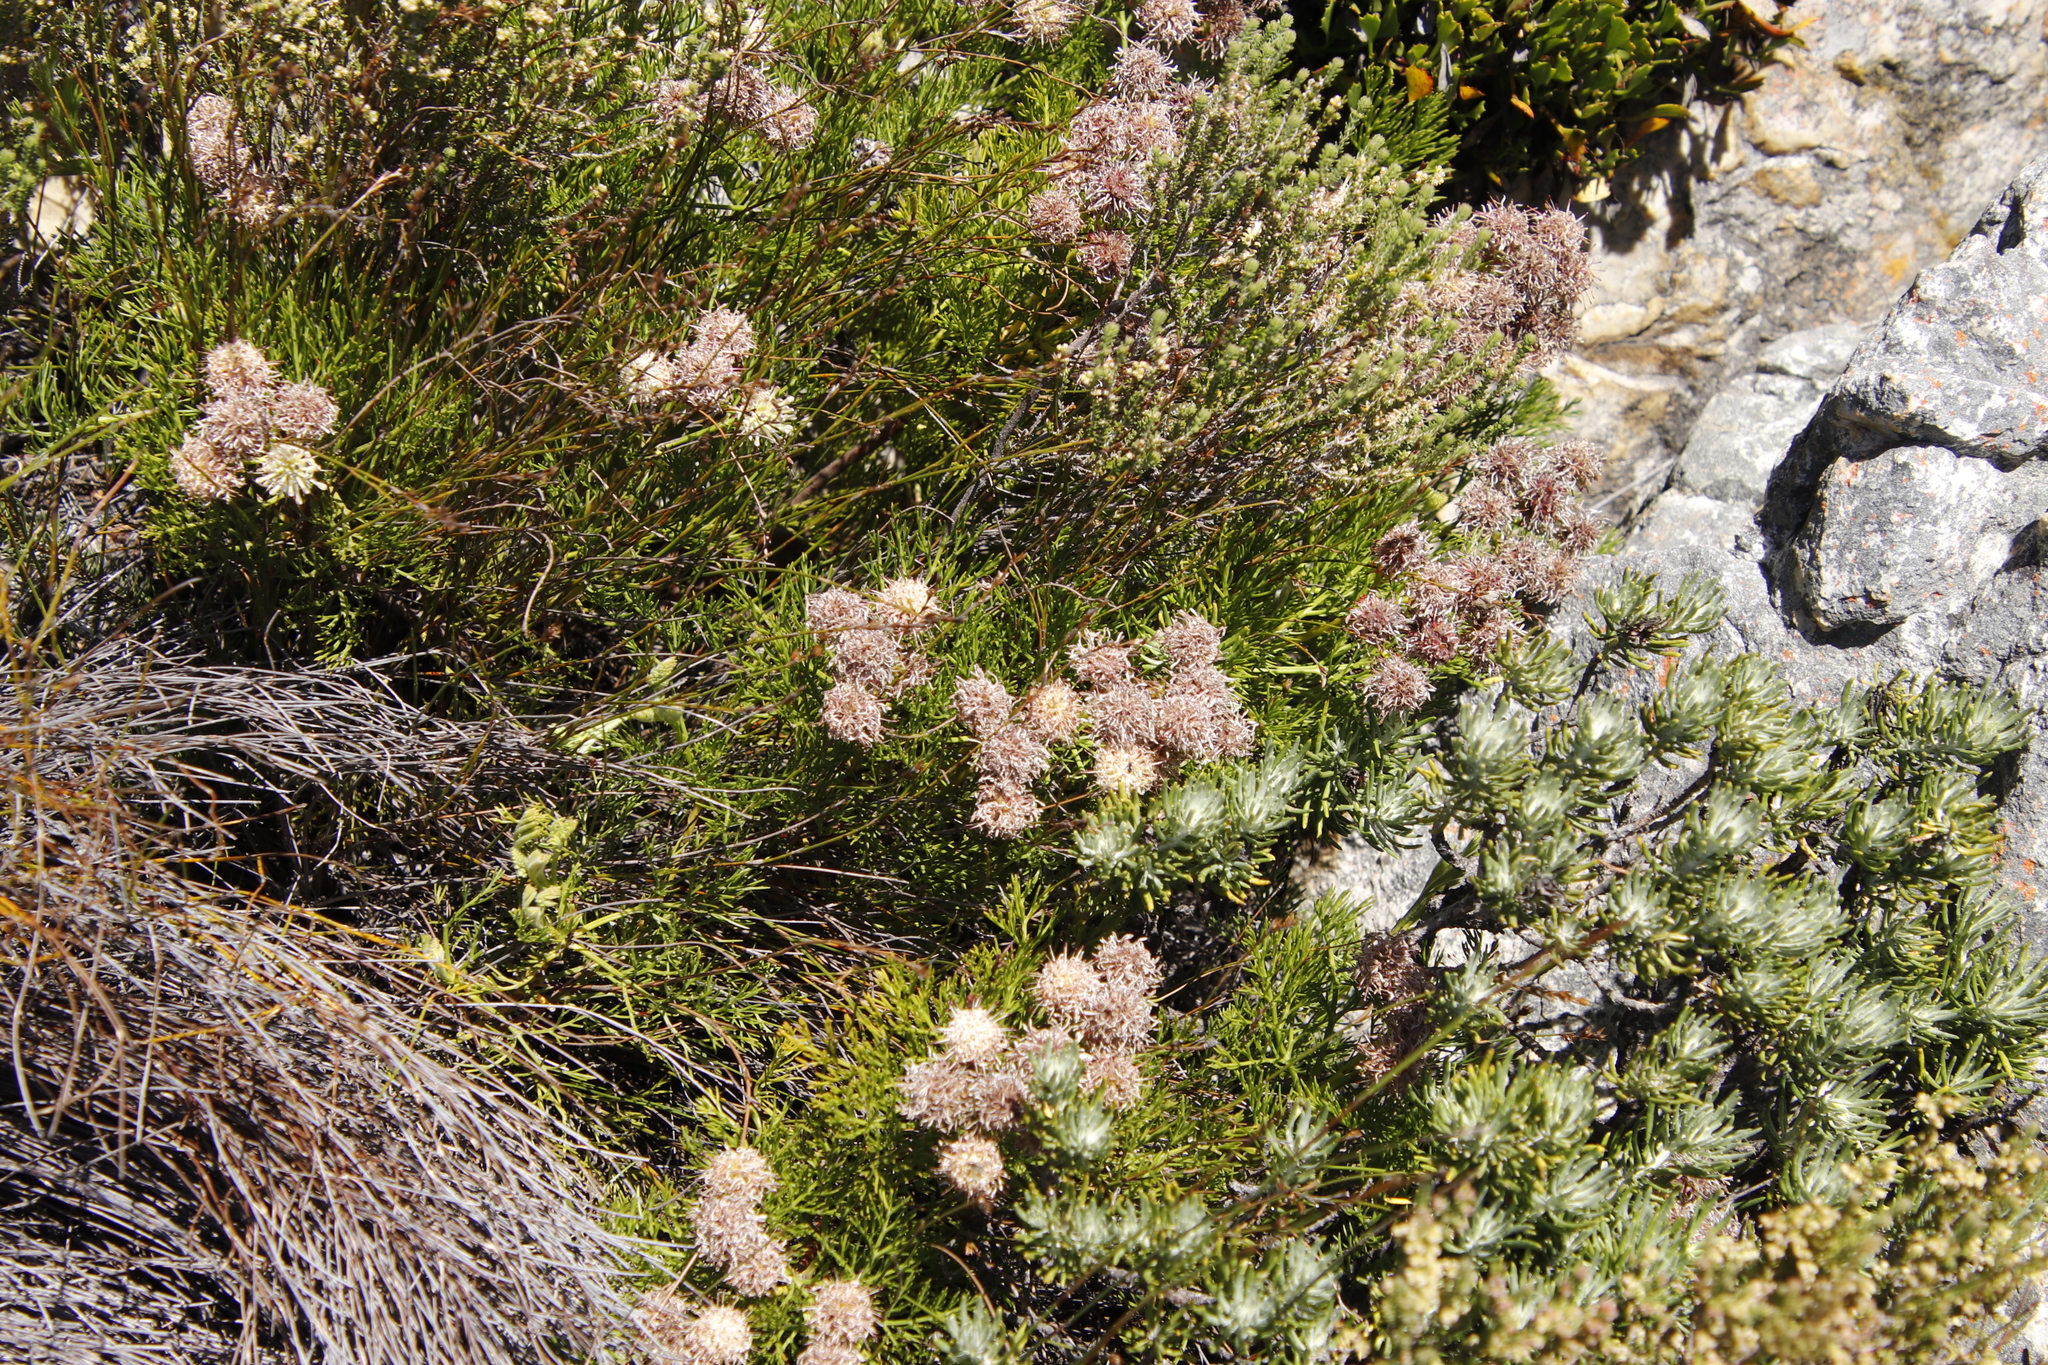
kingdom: Plantae
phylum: Tracheophyta
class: Magnoliopsida
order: Proteales
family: Proteaceae
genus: Serruria
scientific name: Serruria elongata
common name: Long-stalk spiderhead
